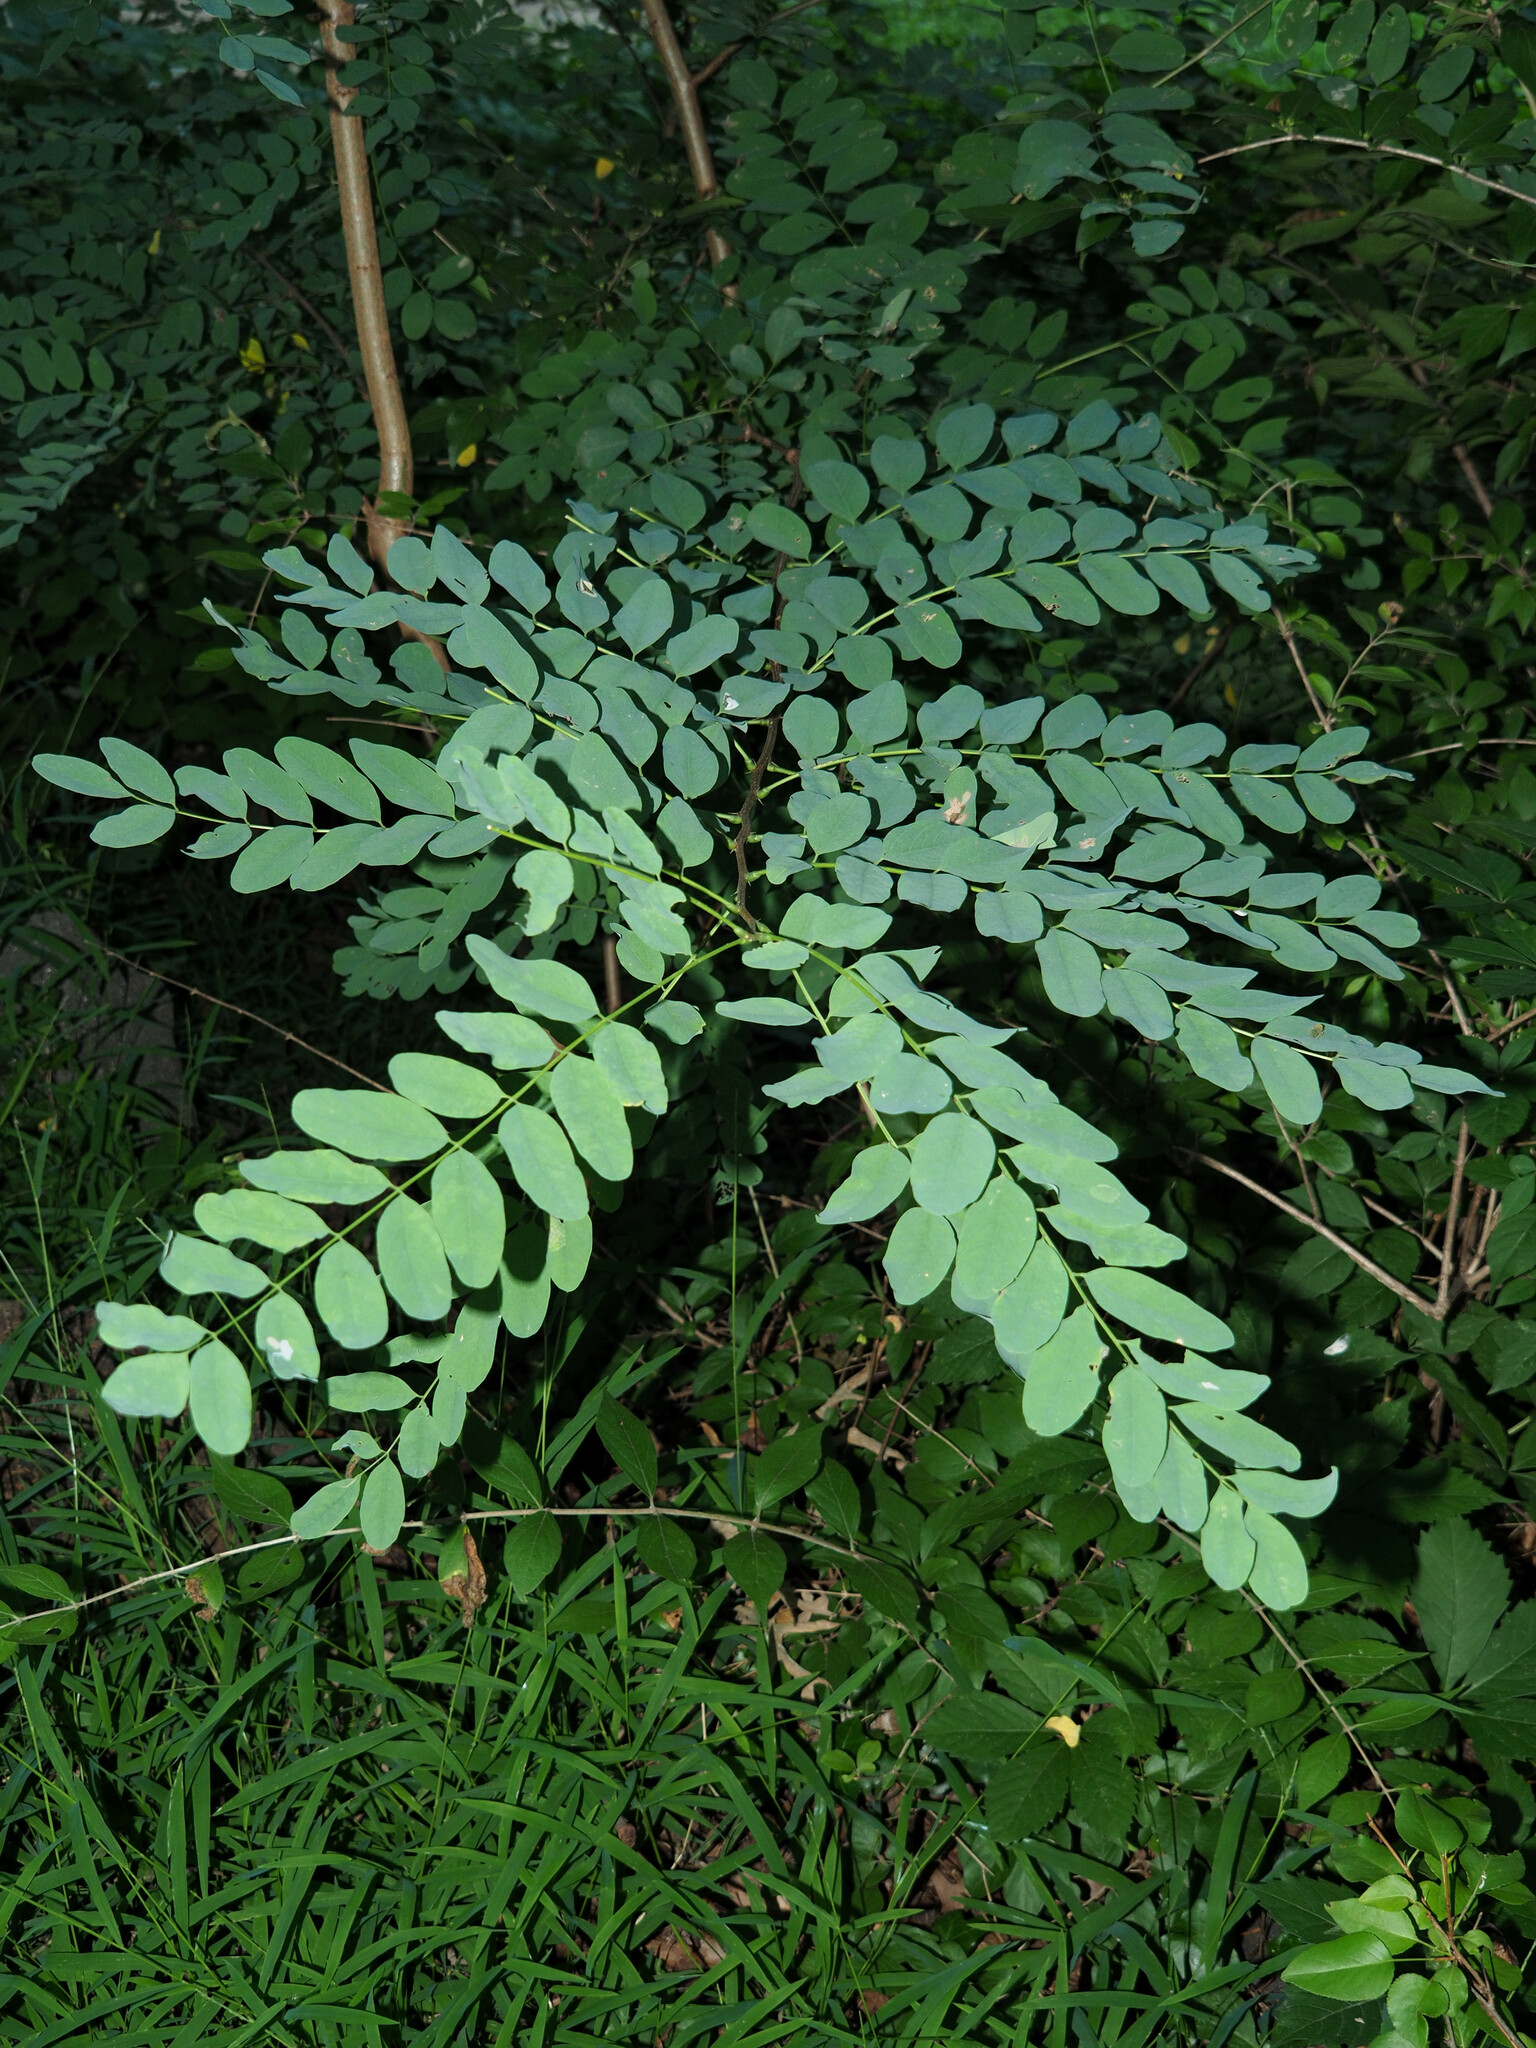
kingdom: Plantae
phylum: Tracheophyta
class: Magnoliopsida
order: Fabales
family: Fabaceae
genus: Robinia
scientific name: Robinia pseudoacacia
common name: Black locust
